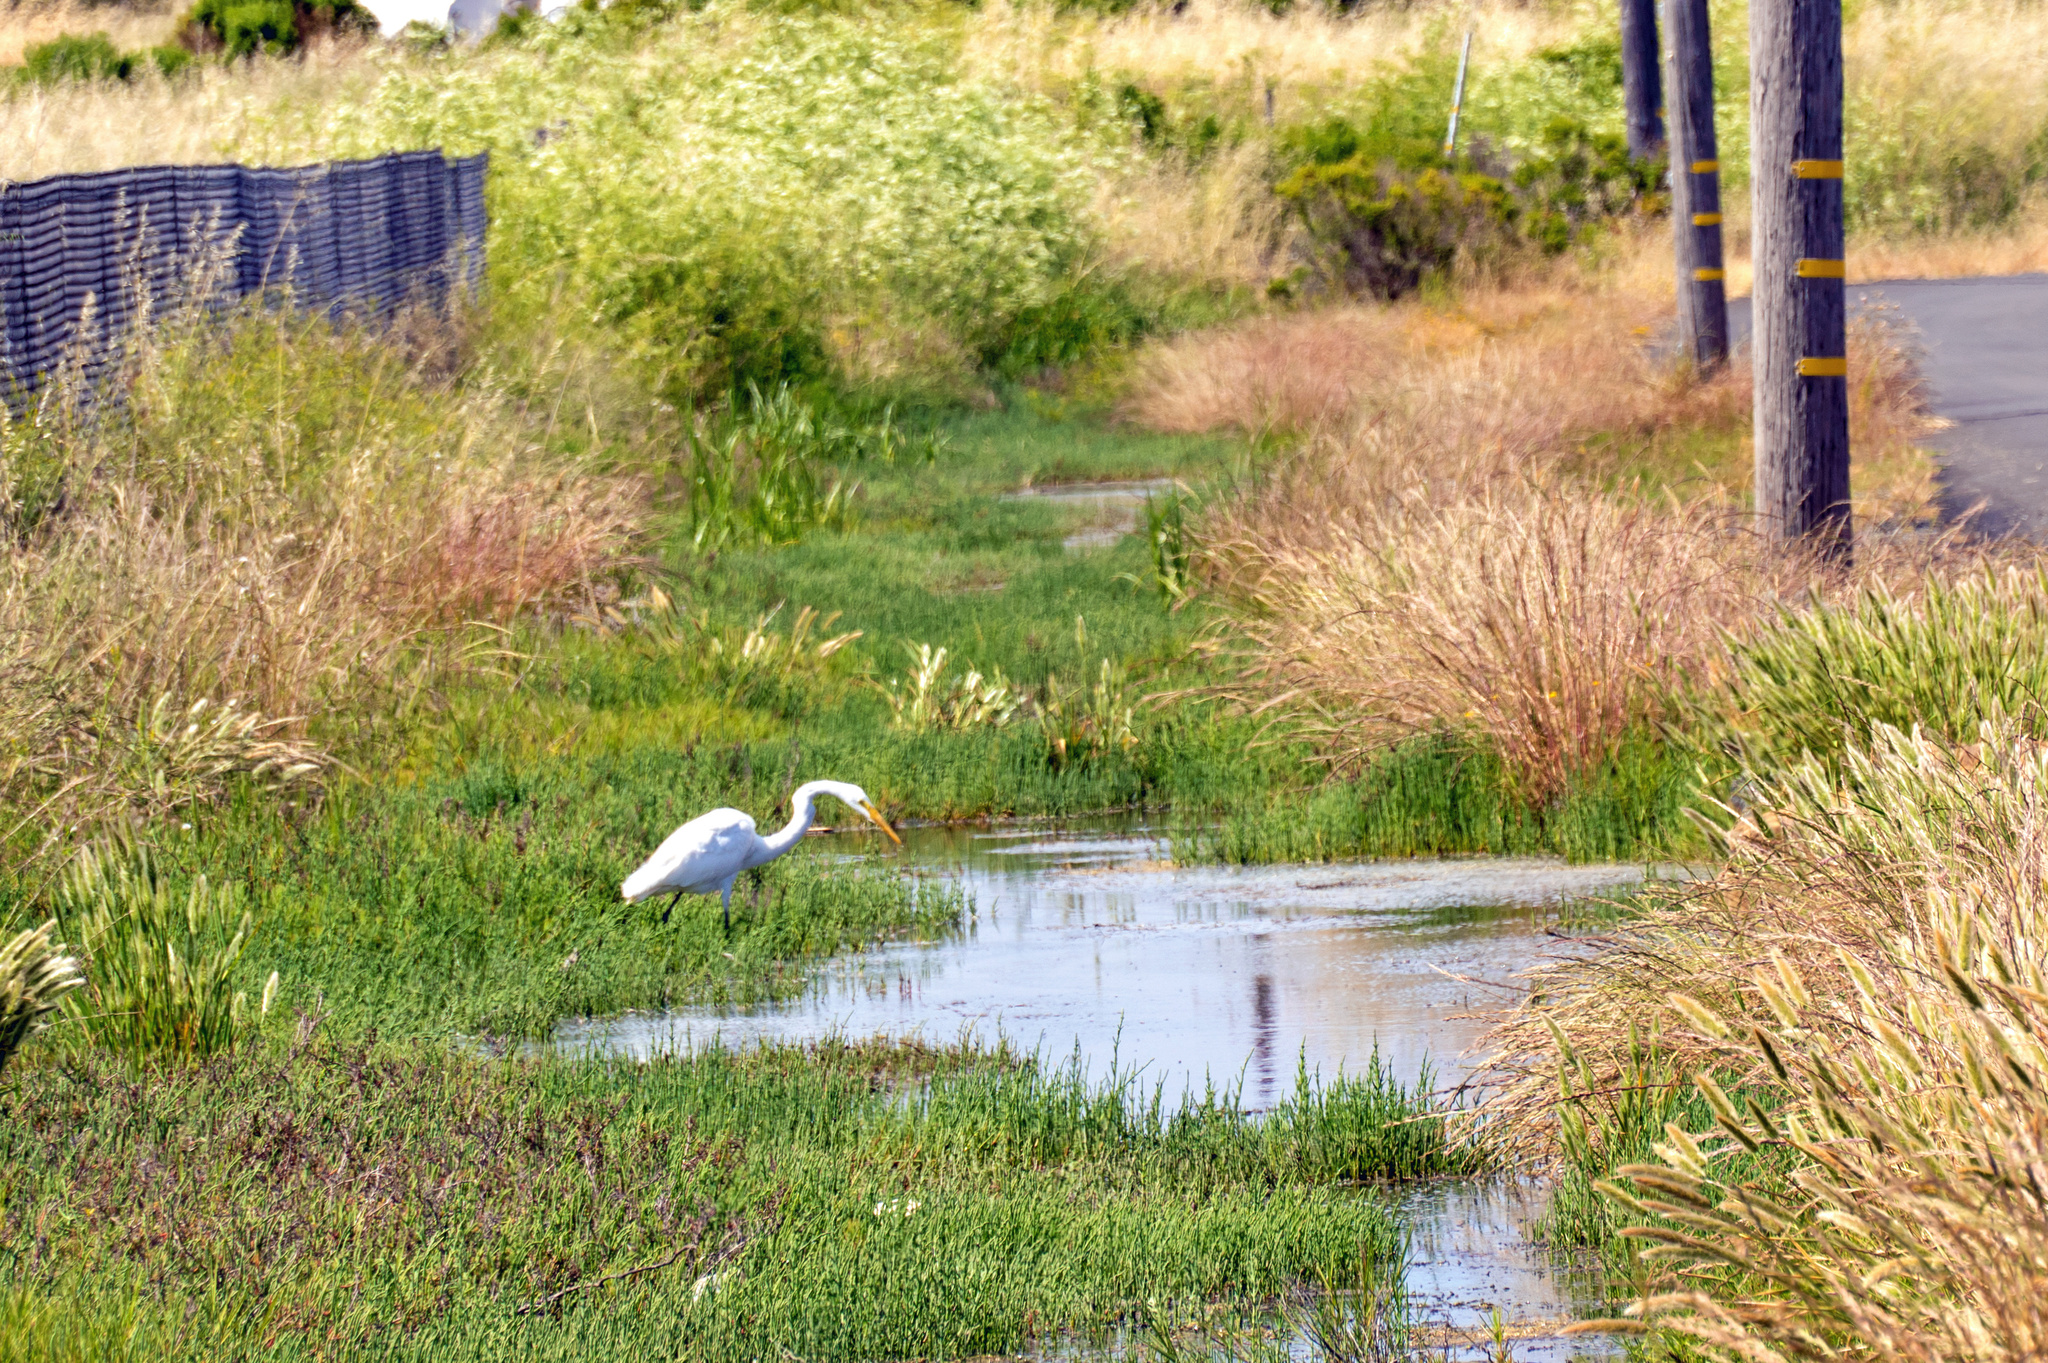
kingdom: Animalia
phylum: Chordata
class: Aves
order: Pelecaniformes
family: Ardeidae
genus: Ardea
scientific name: Ardea alba
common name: Great egret
